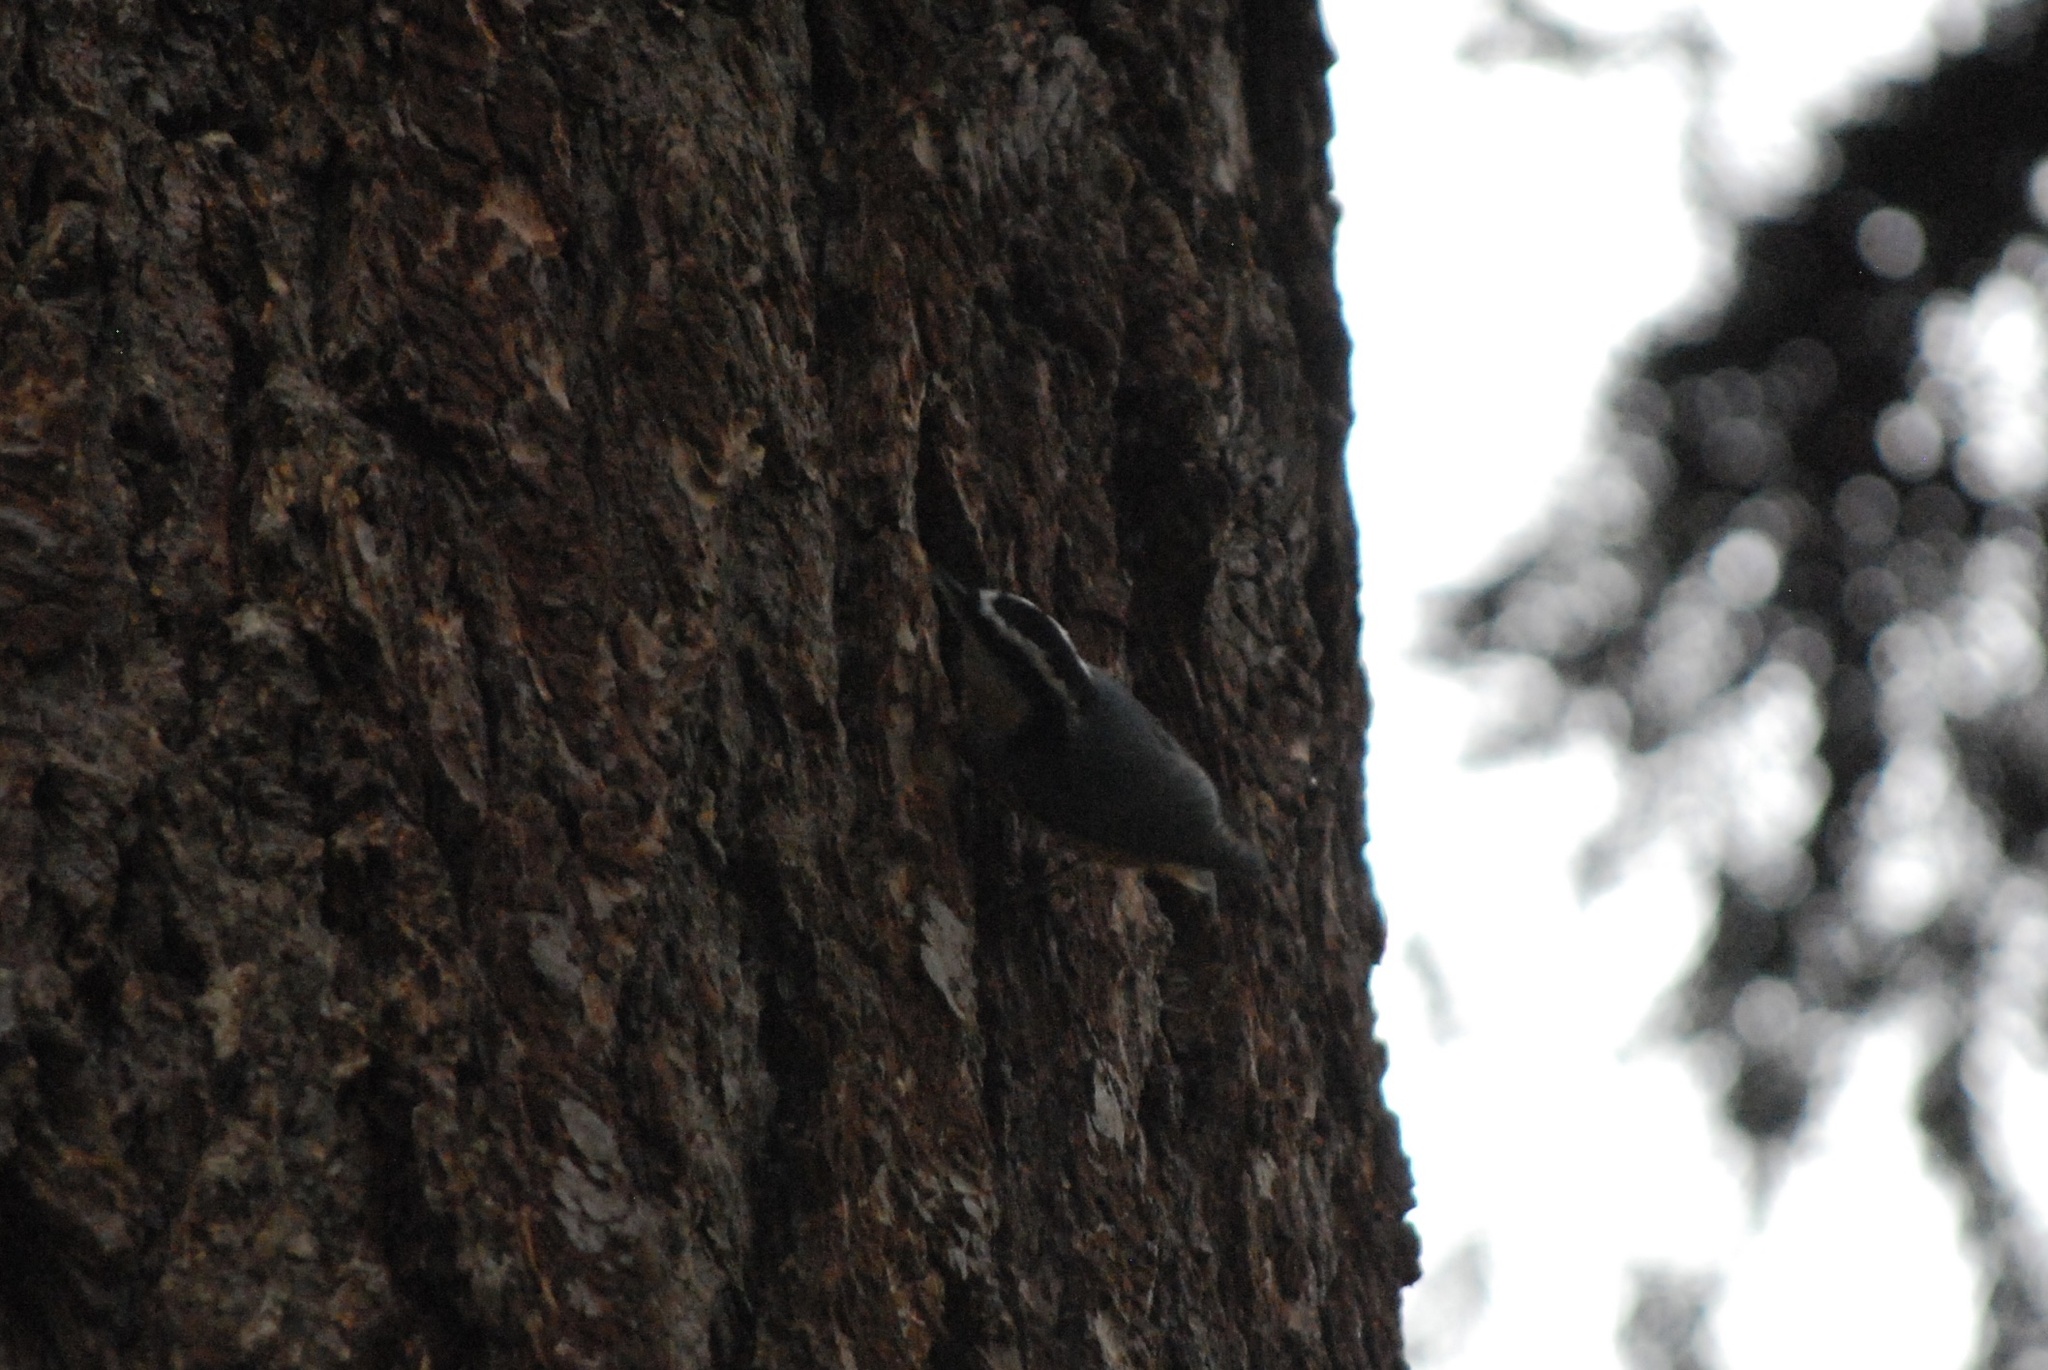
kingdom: Animalia
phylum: Chordata
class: Aves
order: Passeriformes
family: Sittidae
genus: Sitta
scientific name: Sitta canadensis
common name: Red-breasted nuthatch
